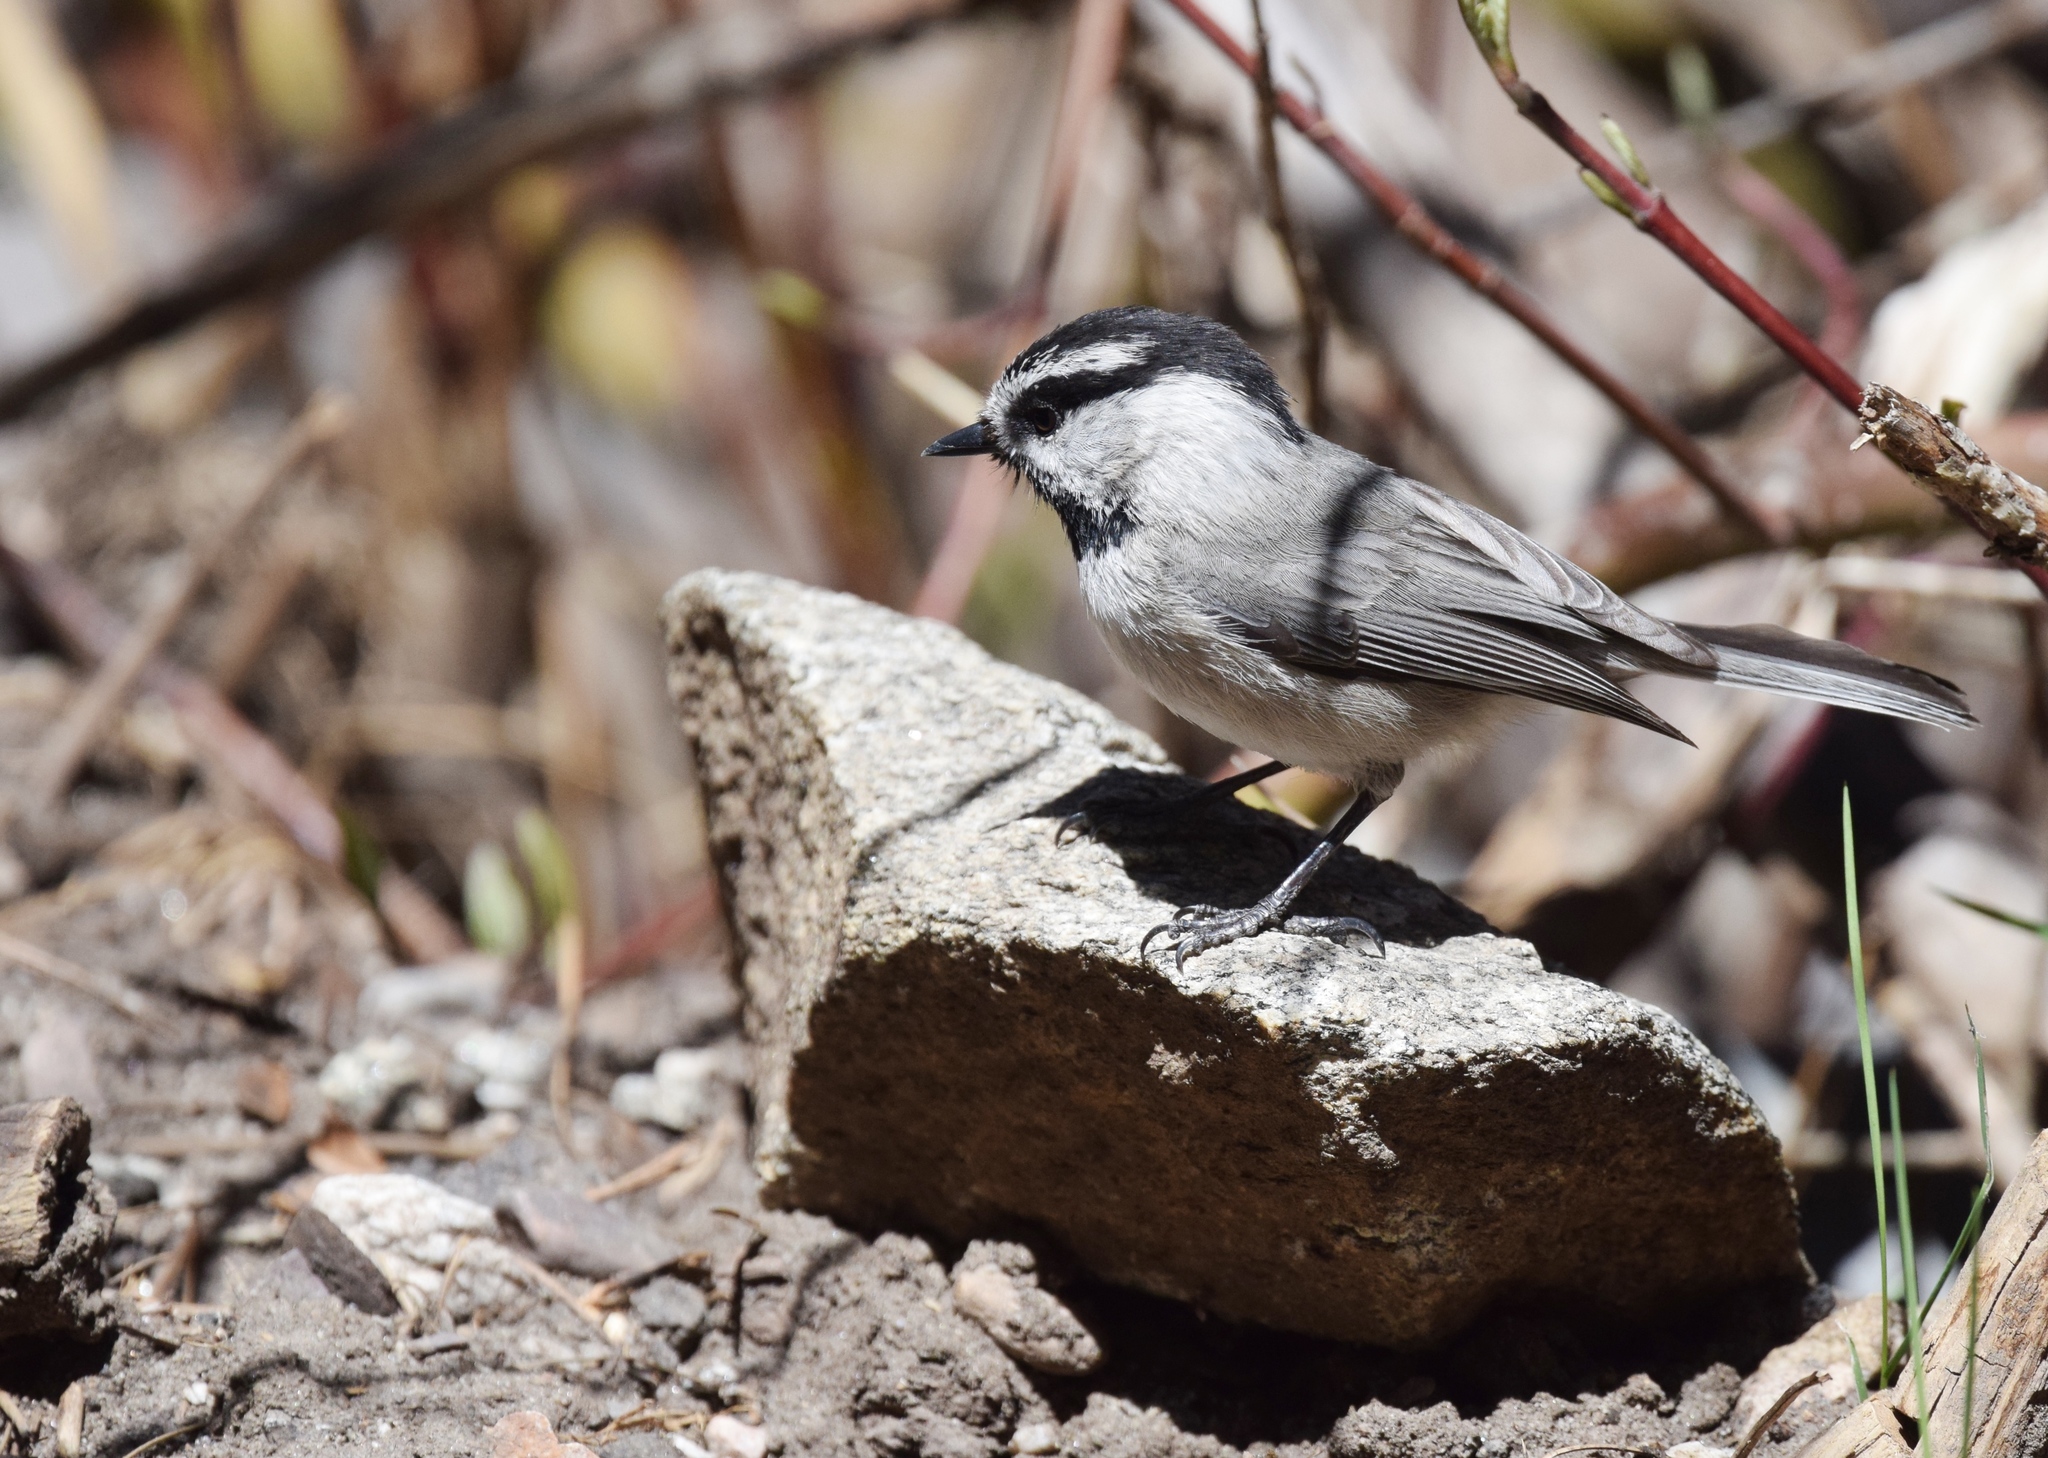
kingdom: Animalia
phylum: Chordata
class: Aves
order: Passeriformes
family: Paridae
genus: Poecile
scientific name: Poecile gambeli
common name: Mountain chickadee
